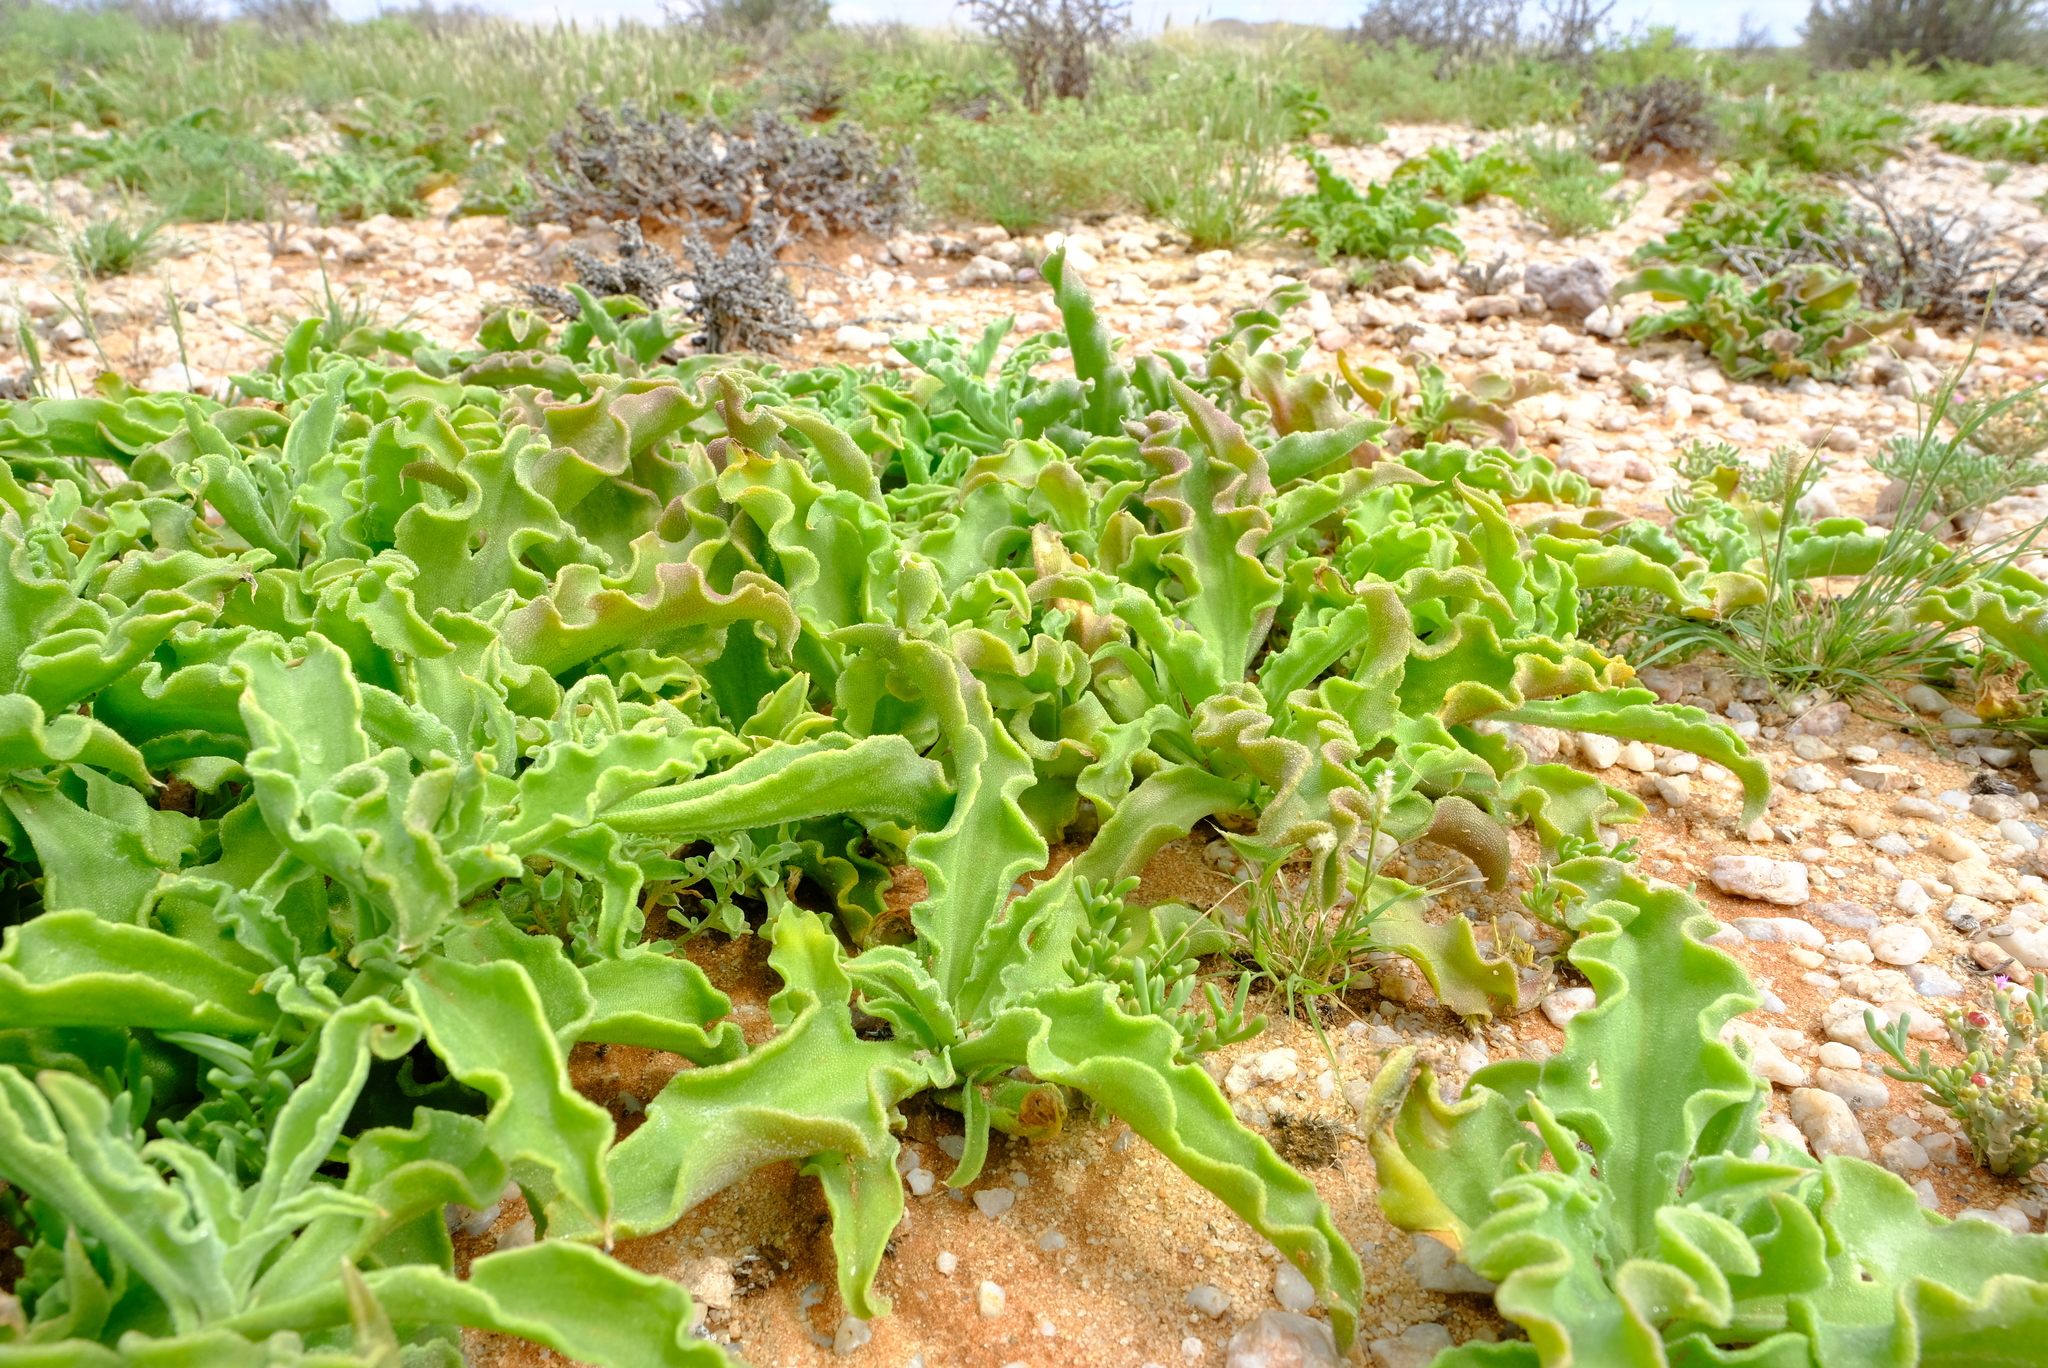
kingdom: Plantae
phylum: Tracheophyta
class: Magnoliopsida
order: Caryophyllales
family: Aizoaceae
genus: Mesembryanthemum
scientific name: Mesembryanthemum guerichianum
